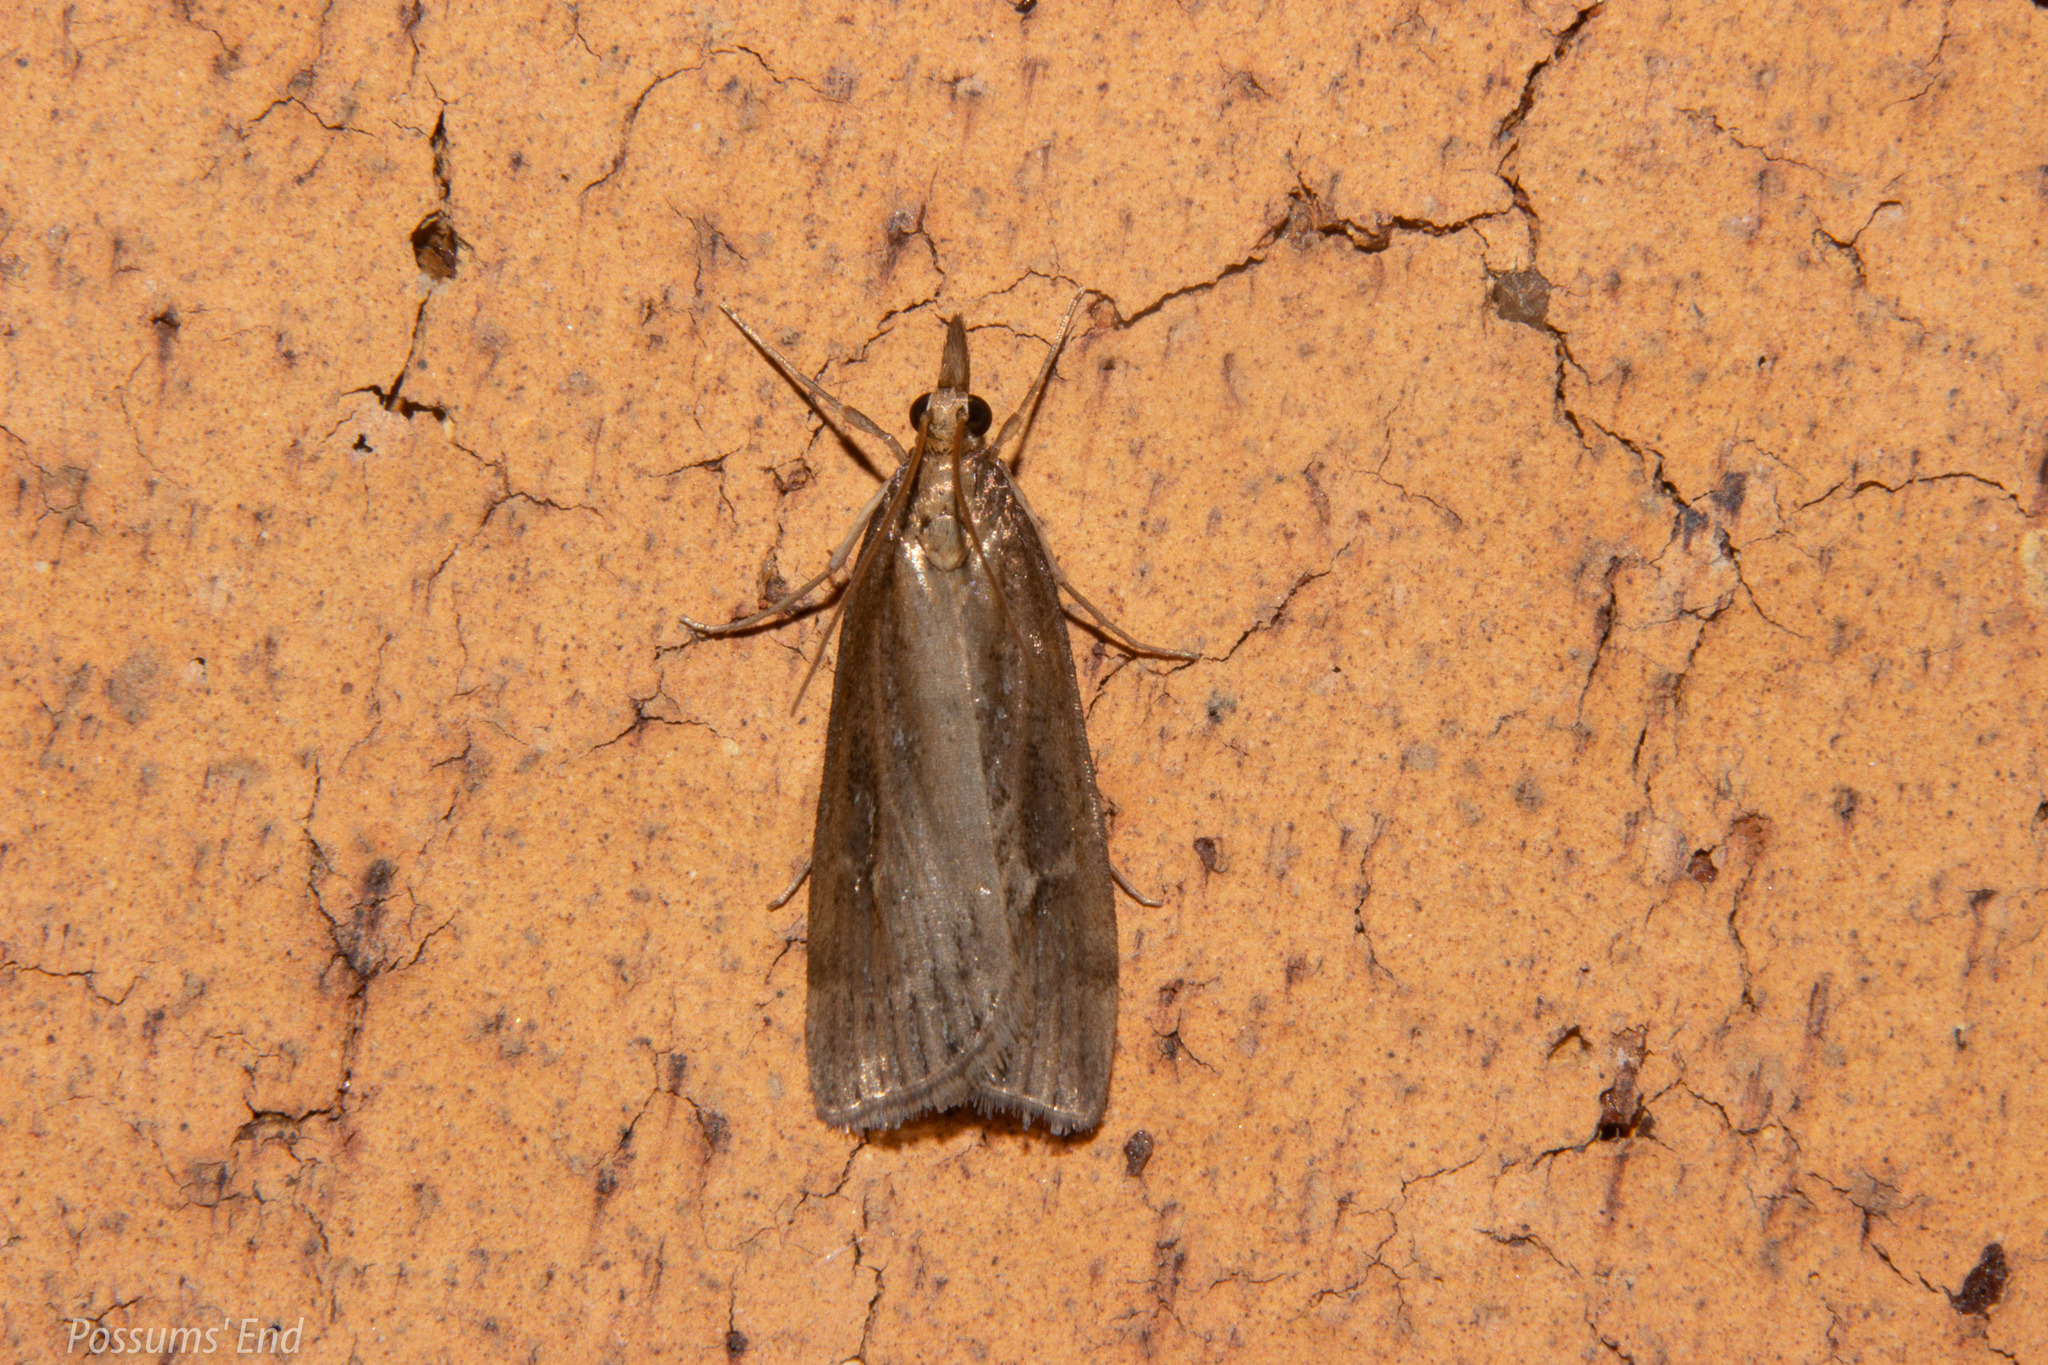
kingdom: Animalia
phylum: Arthropoda
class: Insecta
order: Lepidoptera
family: Crambidae
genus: Eudonia
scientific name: Eudonia octophora
